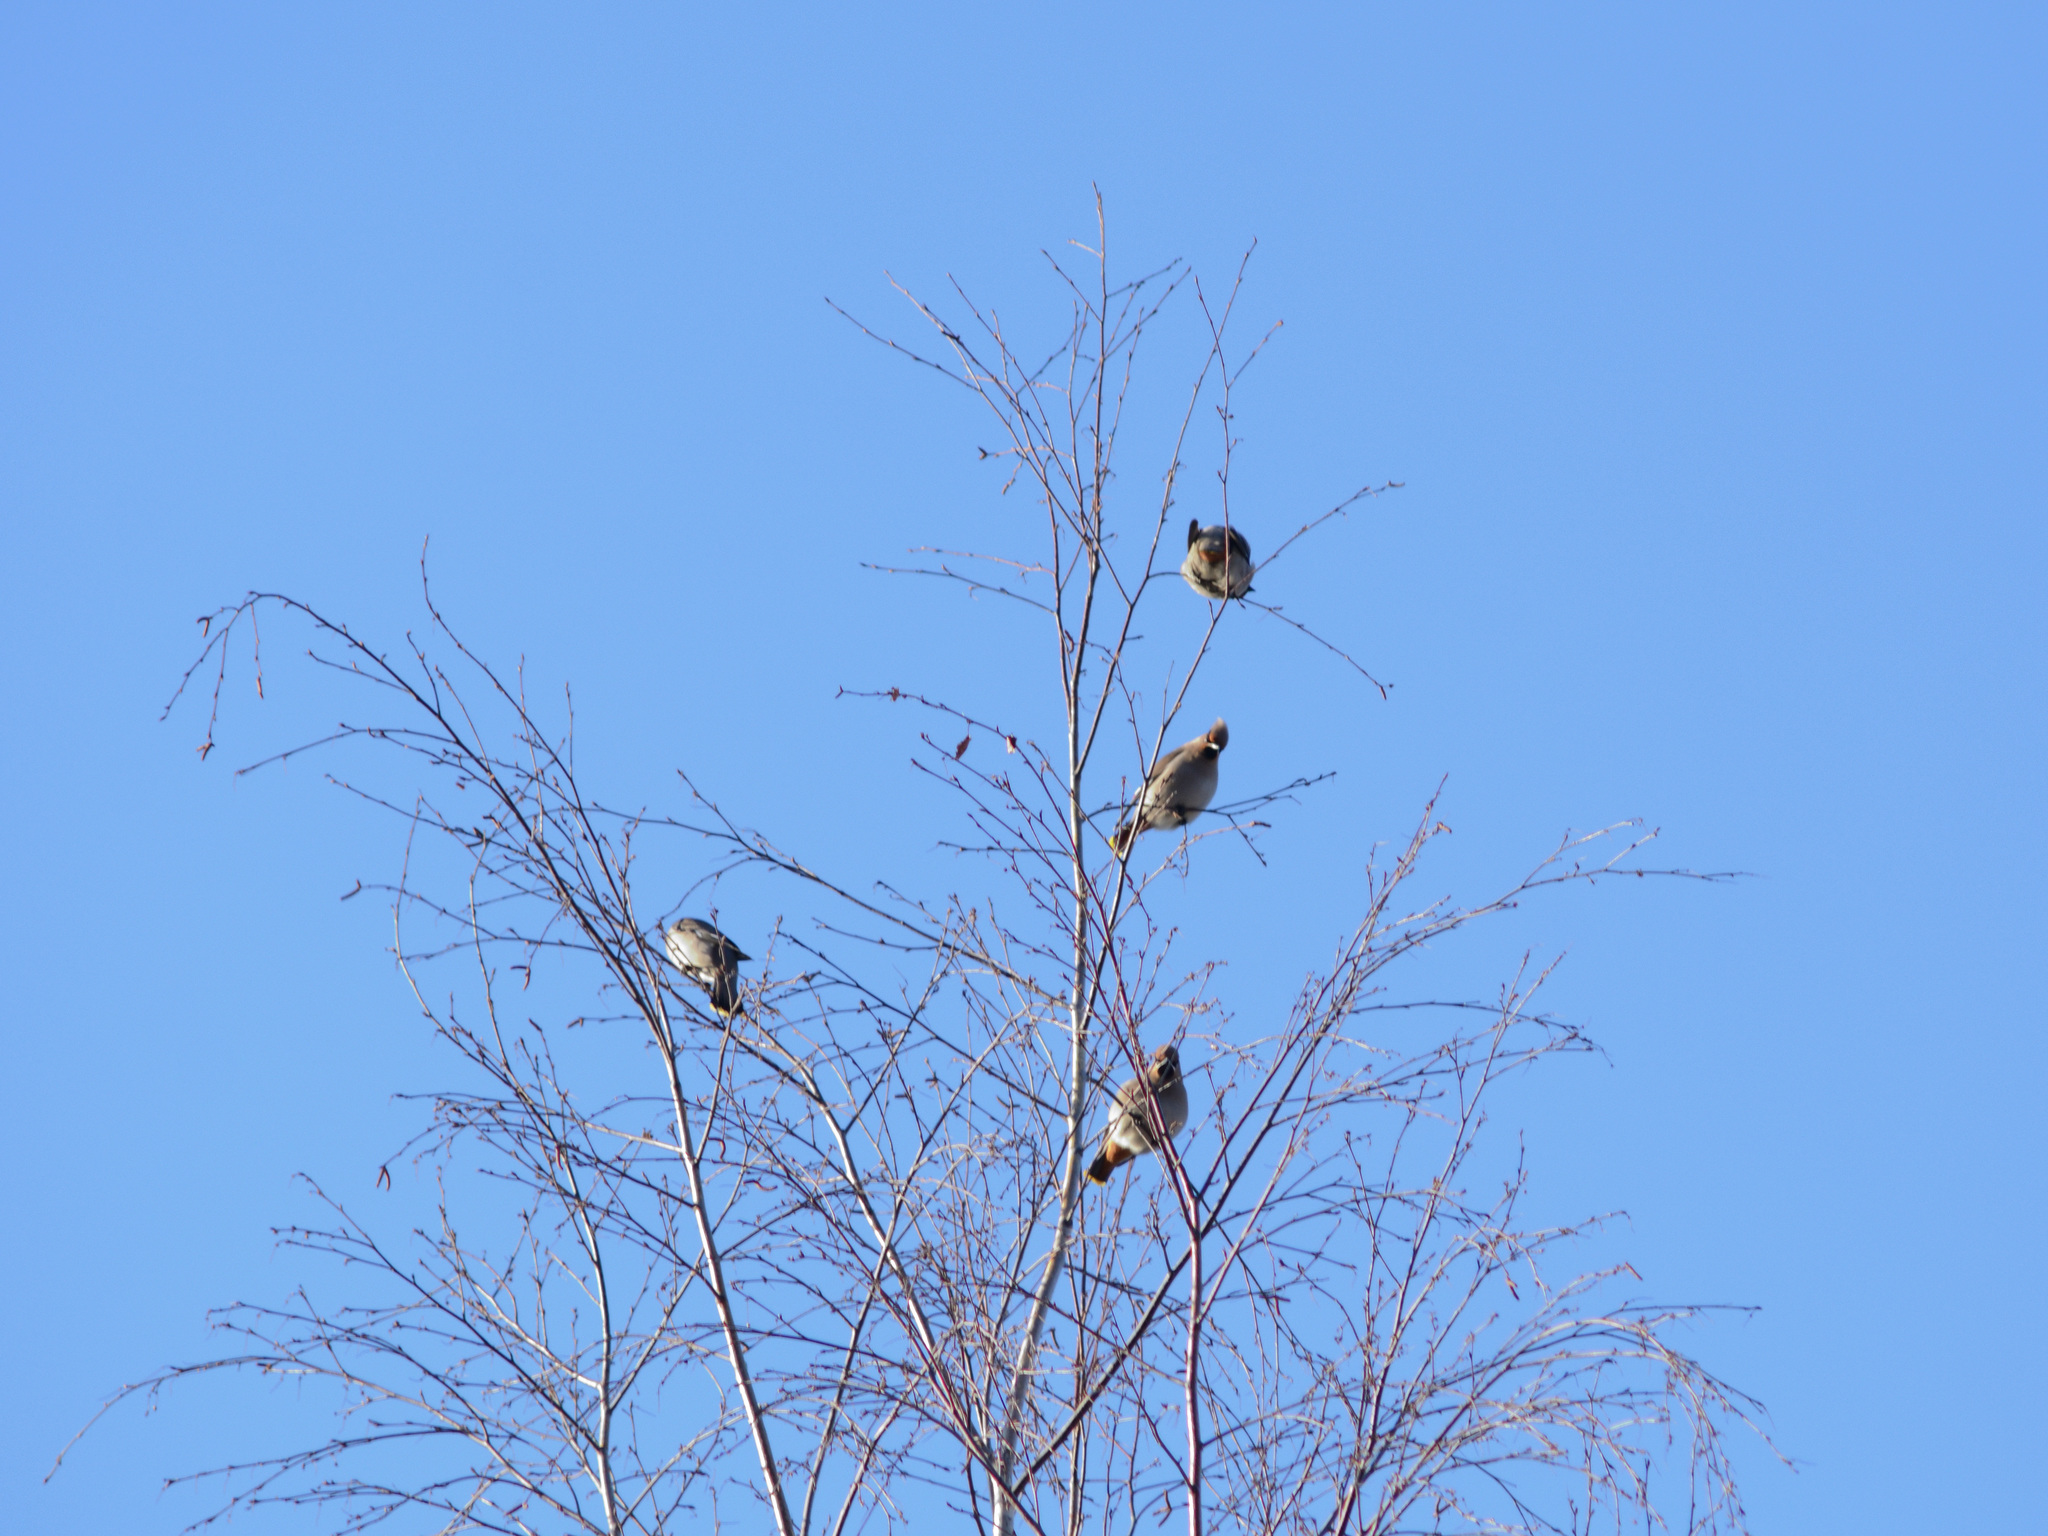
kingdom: Animalia
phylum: Chordata
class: Aves
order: Passeriformes
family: Bombycillidae
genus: Bombycilla
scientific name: Bombycilla garrulus
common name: Bohemian waxwing
